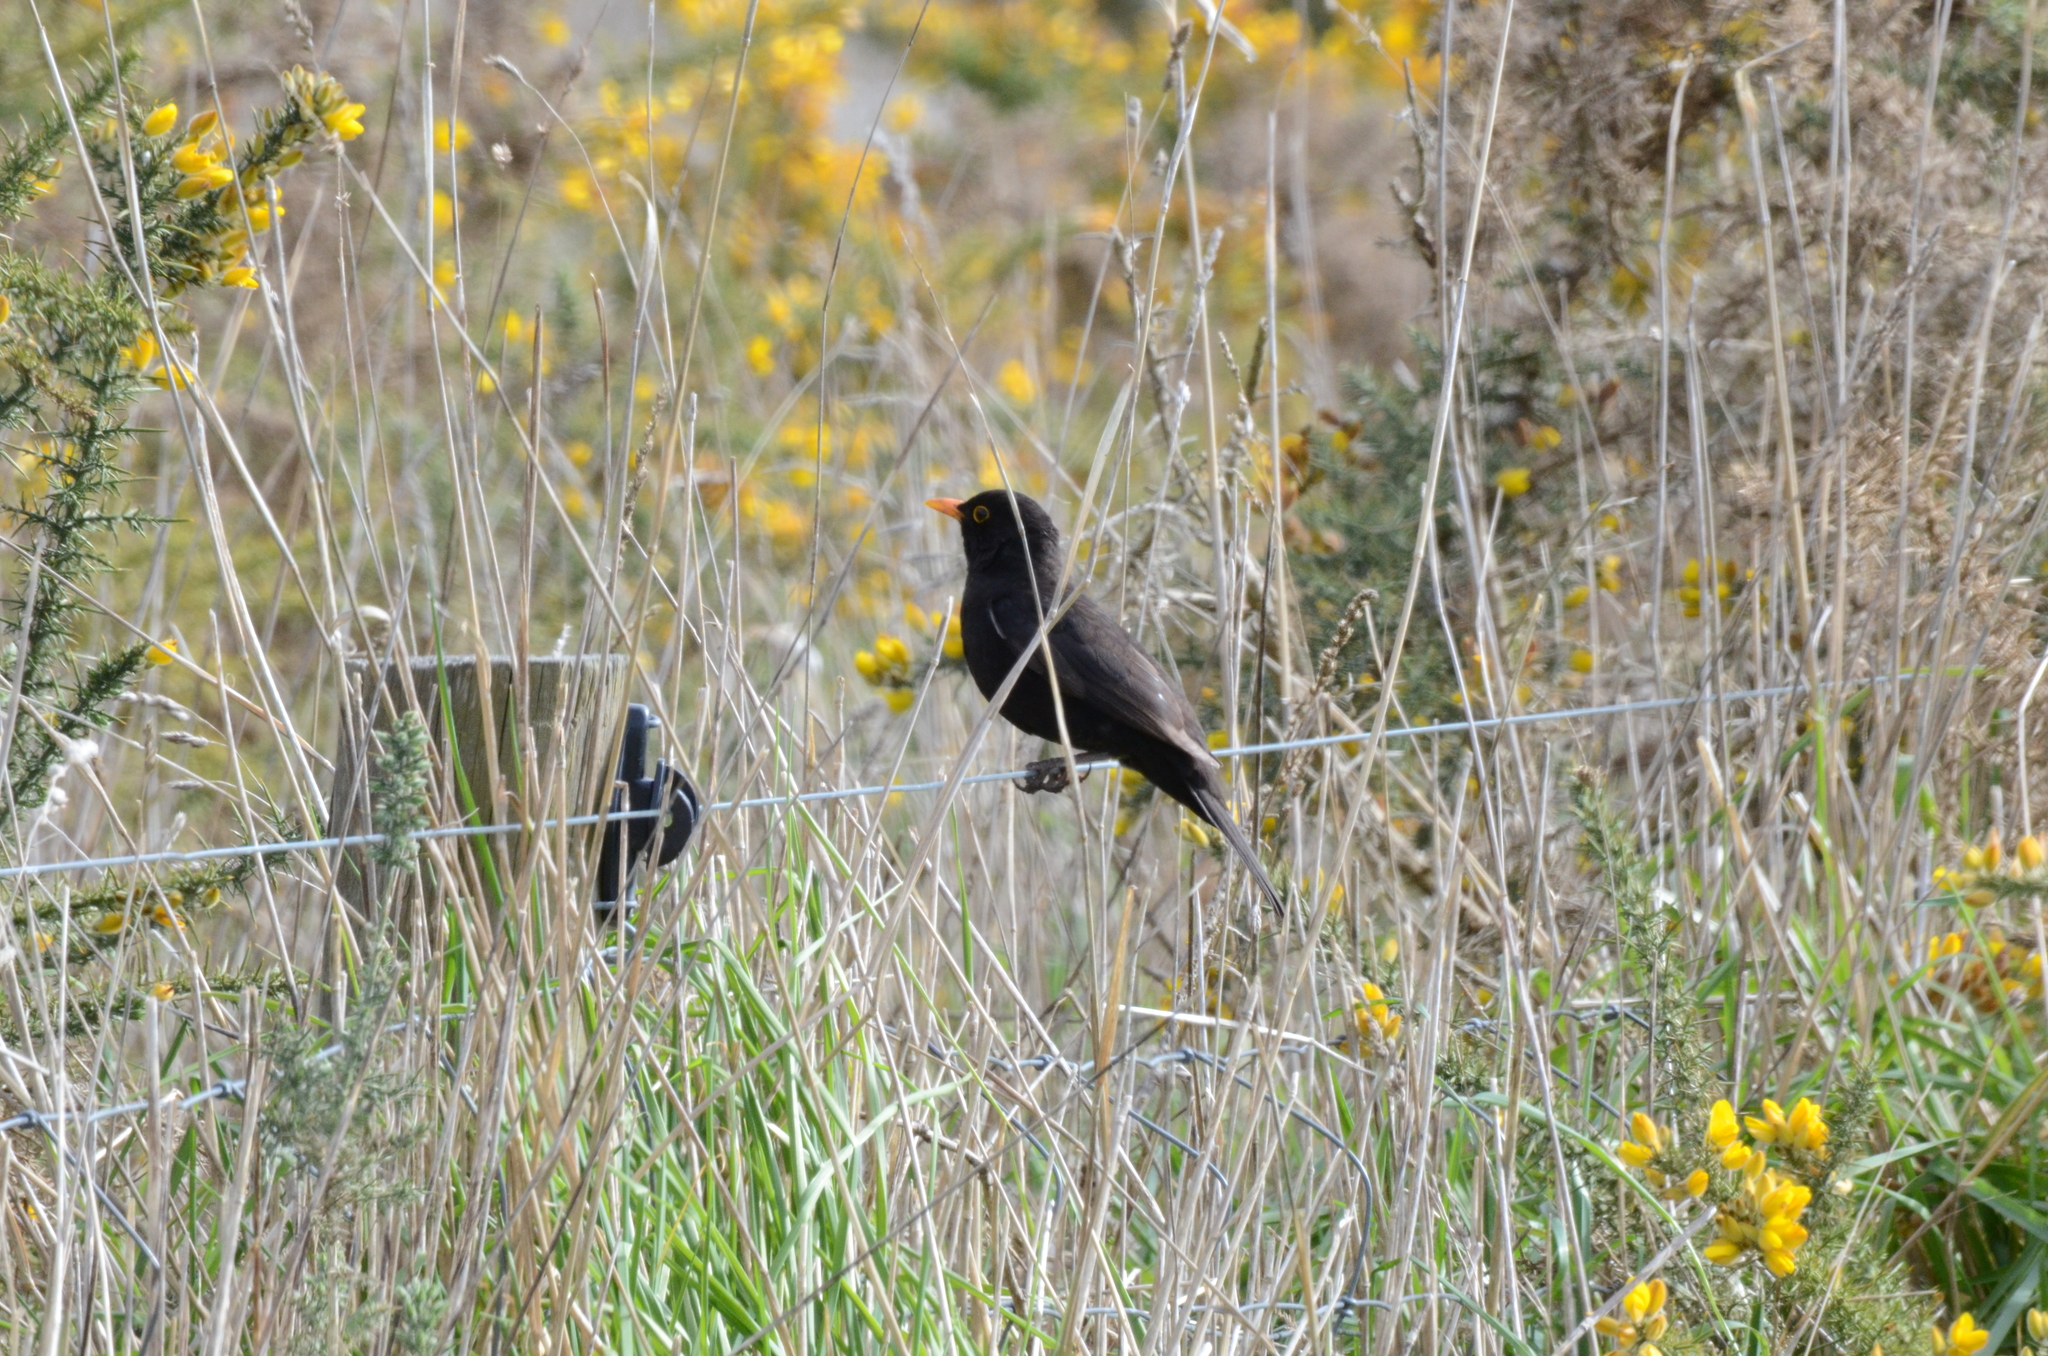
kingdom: Animalia
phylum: Chordata
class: Aves
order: Passeriformes
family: Turdidae
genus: Turdus
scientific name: Turdus merula
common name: Common blackbird
